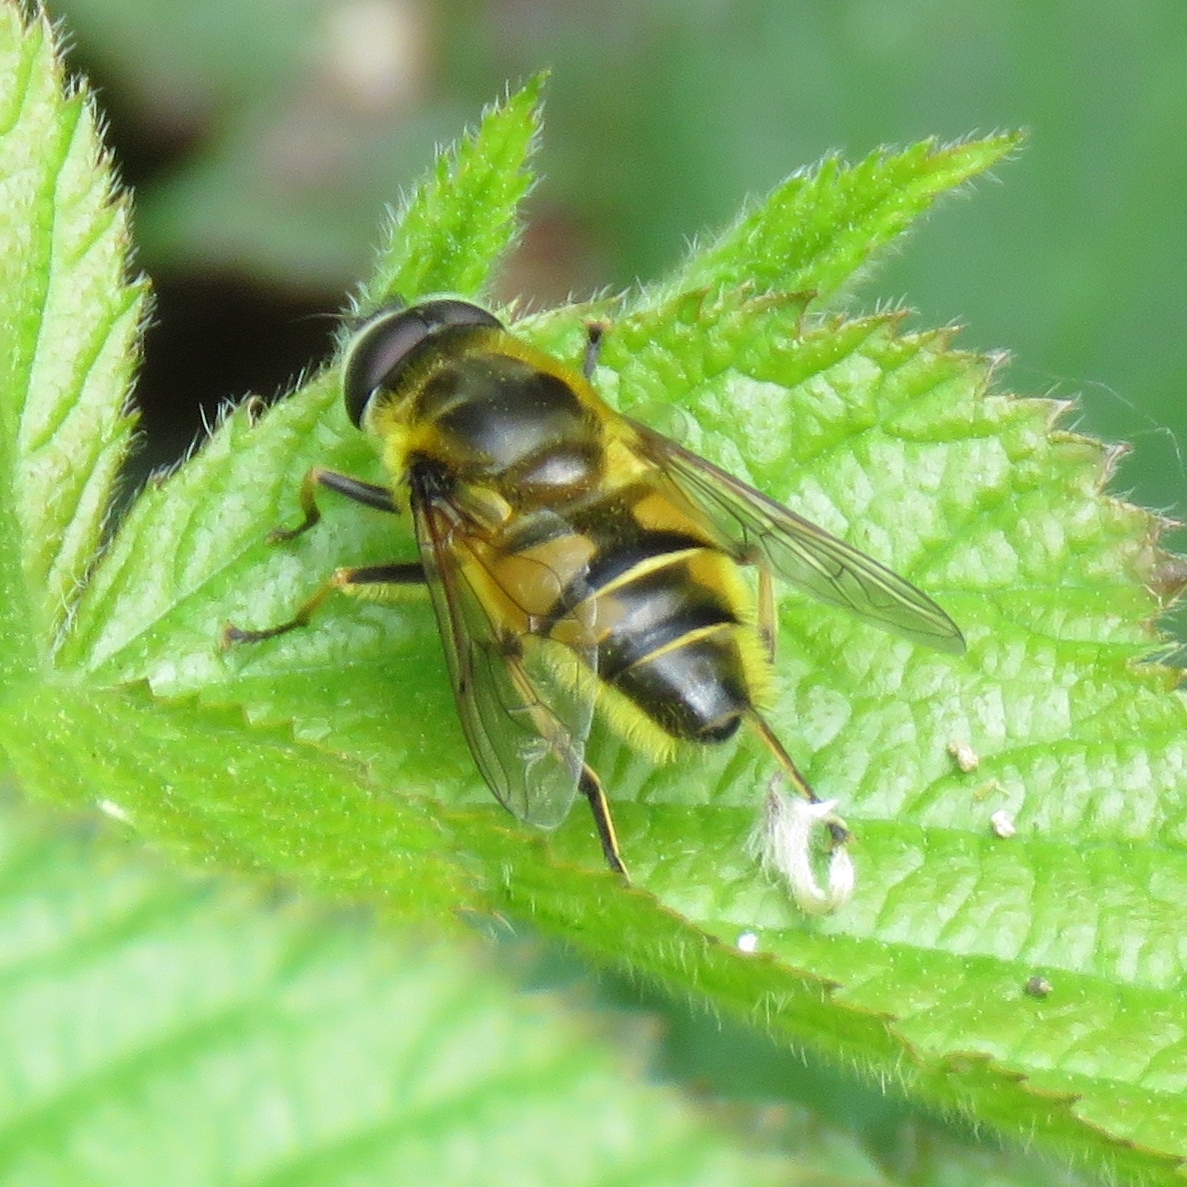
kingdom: Animalia
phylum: Arthropoda
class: Insecta
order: Diptera
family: Syrphidae
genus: Myathropa
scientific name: Myathropa florea
